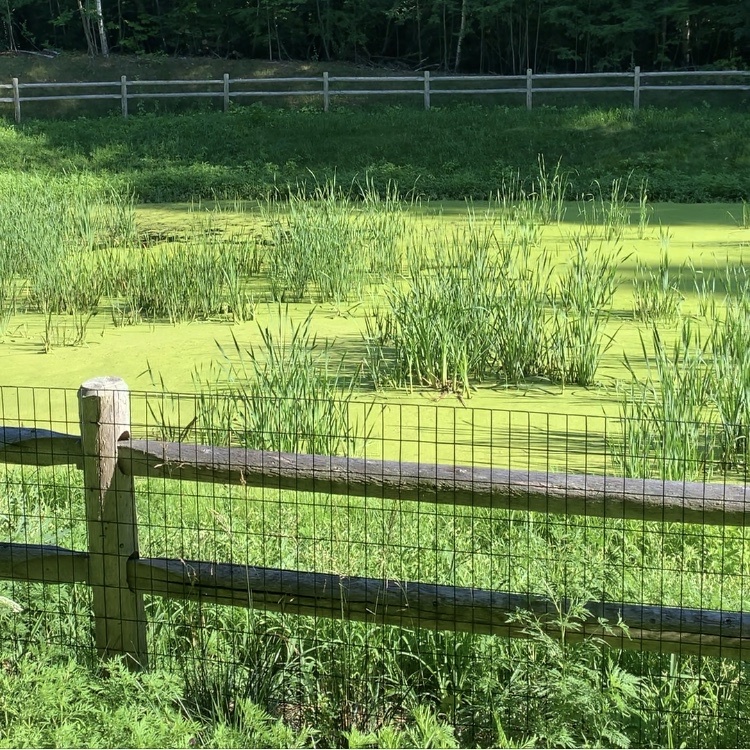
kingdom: Animalia
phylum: Chordata
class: Amphibia
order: Anura
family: Ranidae
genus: Lithobates
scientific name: Lithobates clamitans
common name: Green frog
